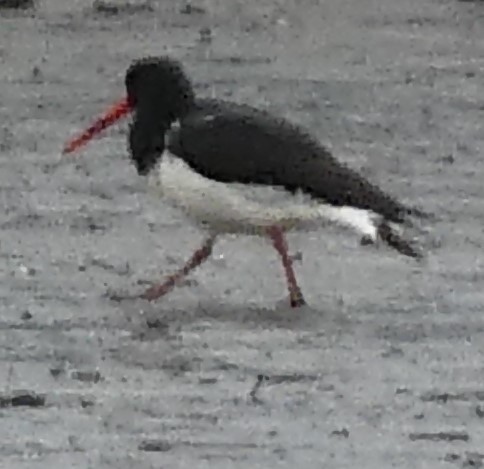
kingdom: Animalia
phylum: Chordata
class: Aves
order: Charadriiformes
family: Haematopodidae
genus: Haematopus
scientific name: Haematopus ostralegus
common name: Eurasian oystercatcher
